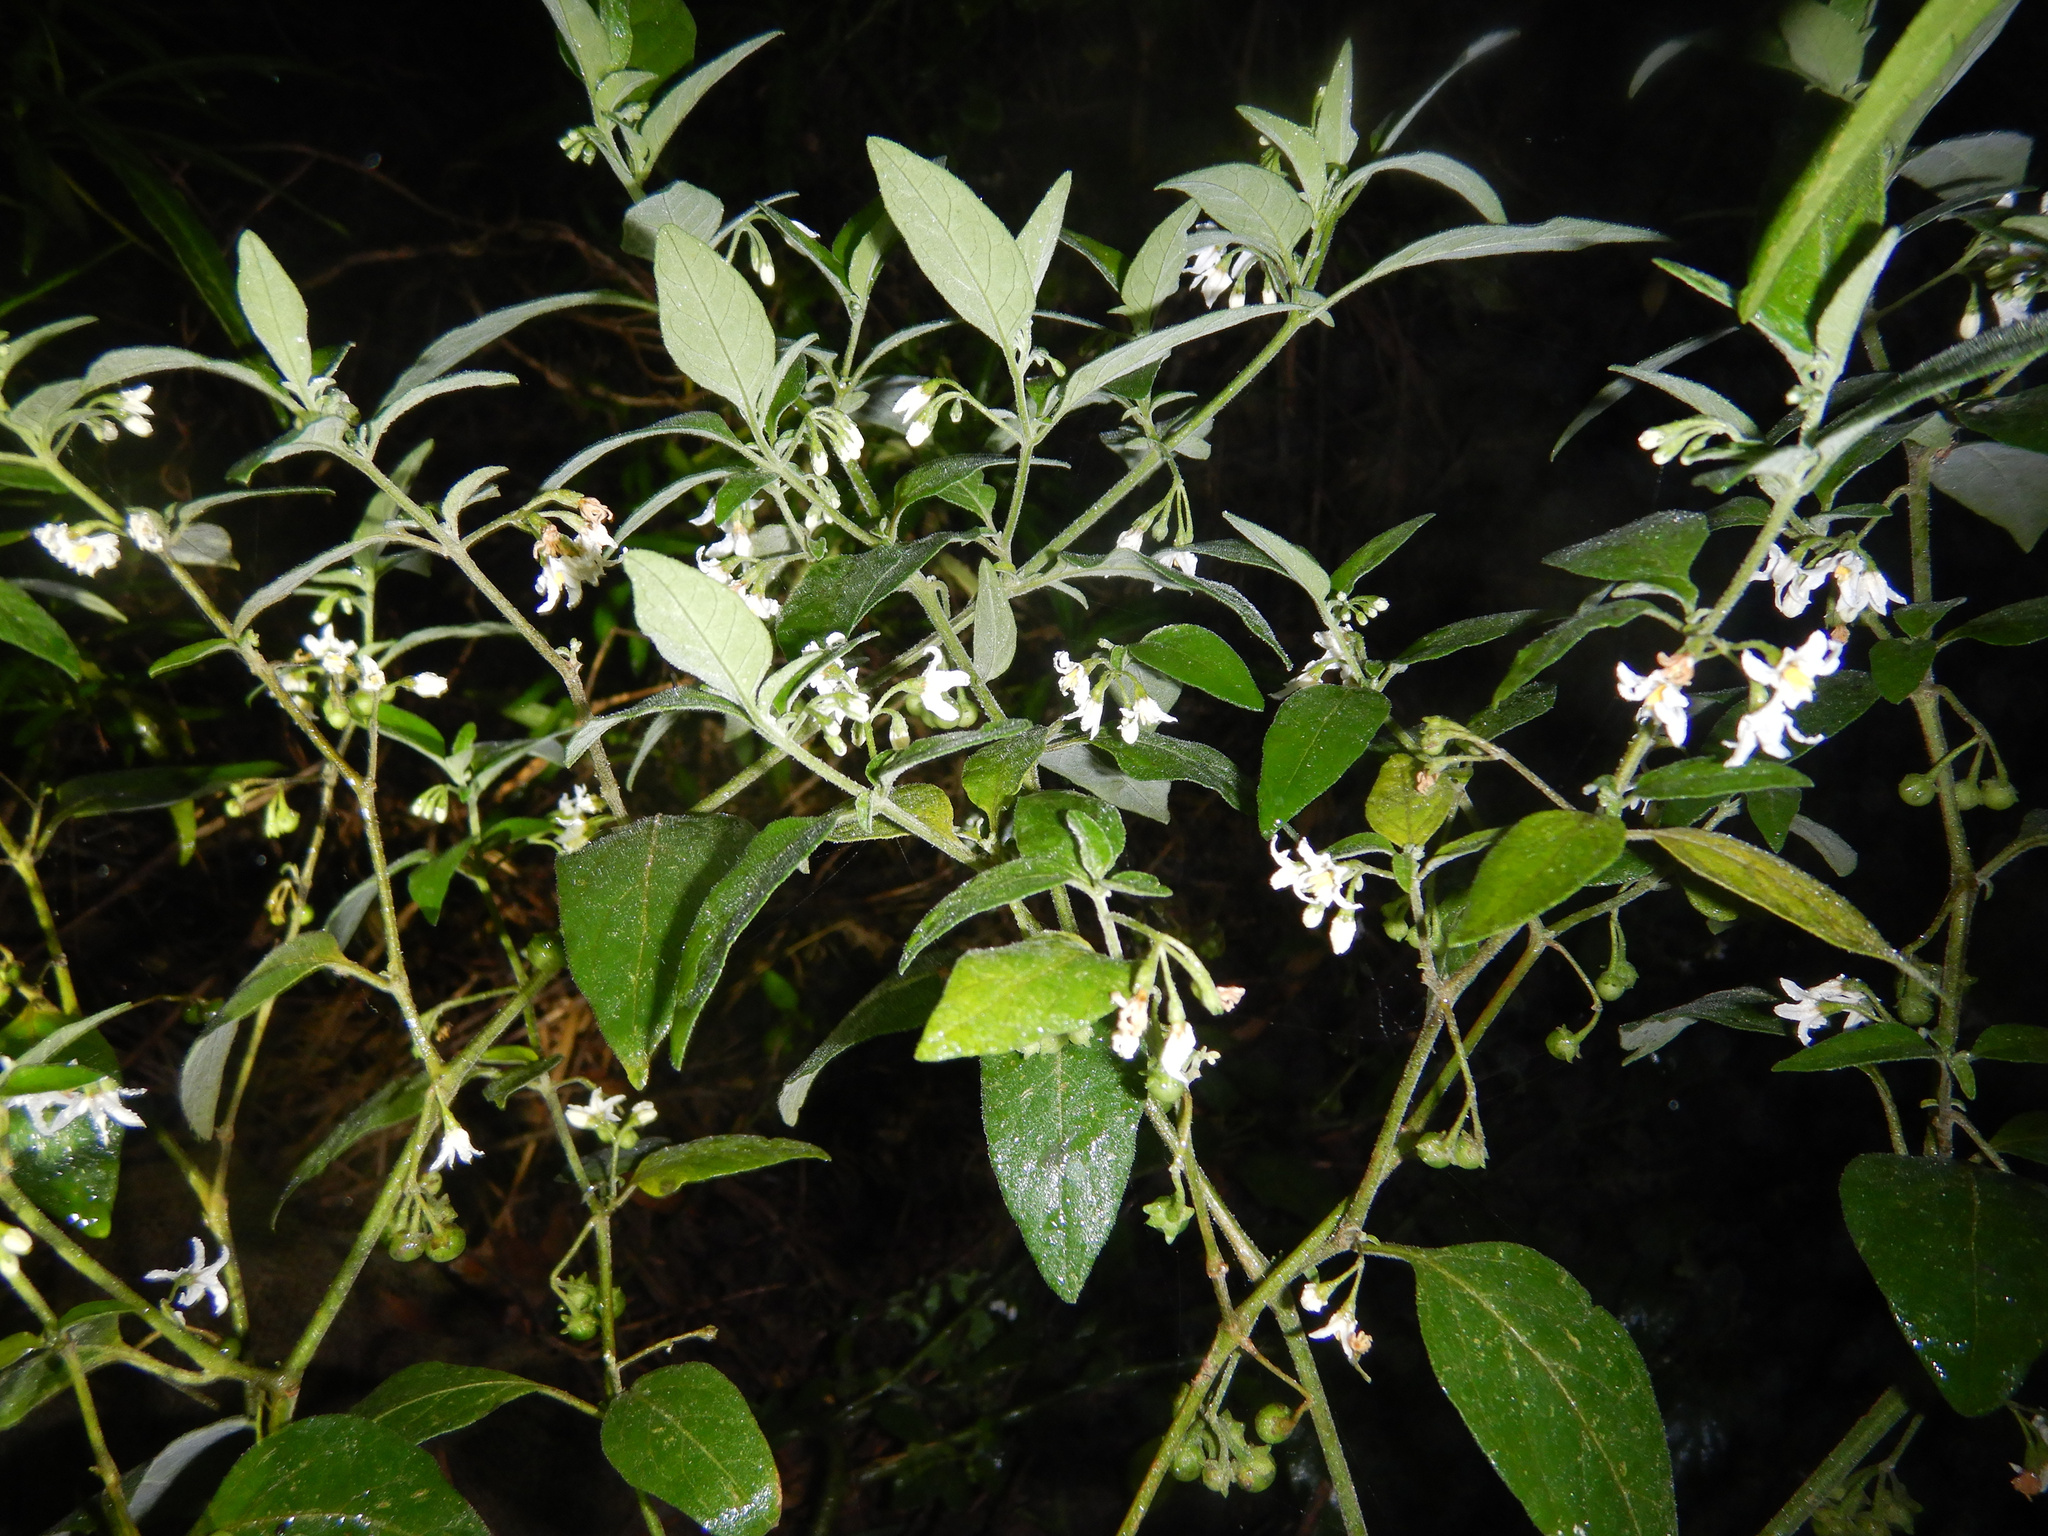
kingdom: Plantae
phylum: Tracheophyta
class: Magnoliopsida
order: Solanales
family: Solanaceae
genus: Solanum
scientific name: Solanum chenopodioides
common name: Tall nightshade
